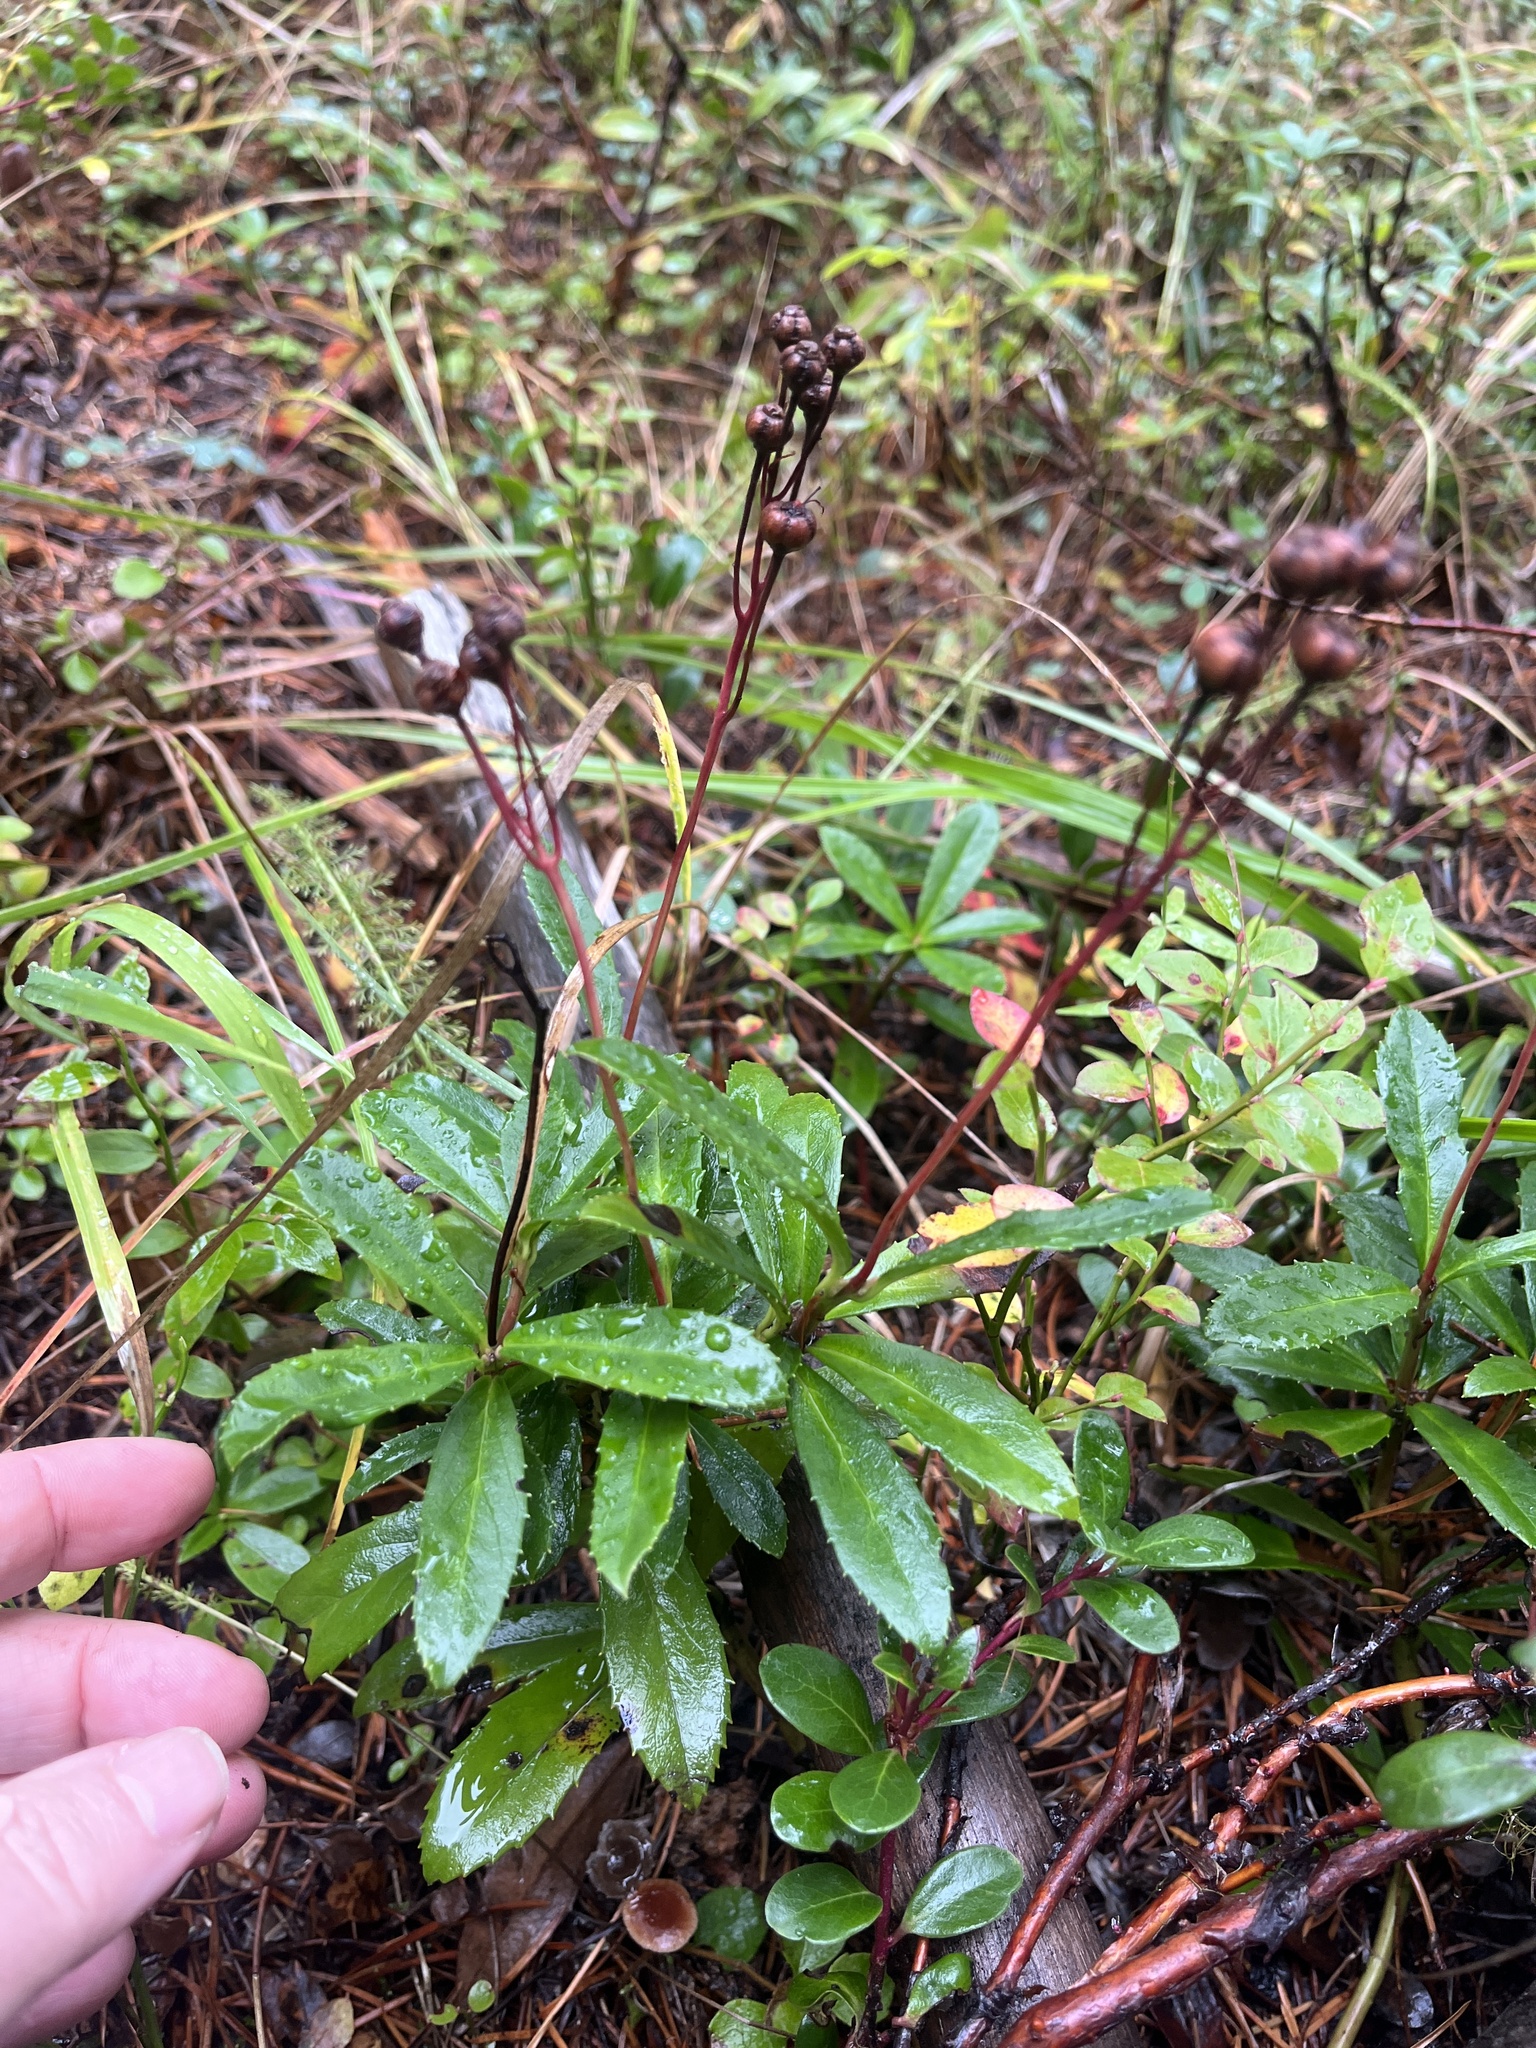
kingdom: Plantae
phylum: Tracheophyta
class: Magnoliopsida
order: Ericales
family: Ericaceae
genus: Chimaphila
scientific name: Chimaphila umbellata
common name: Pipsissewa
